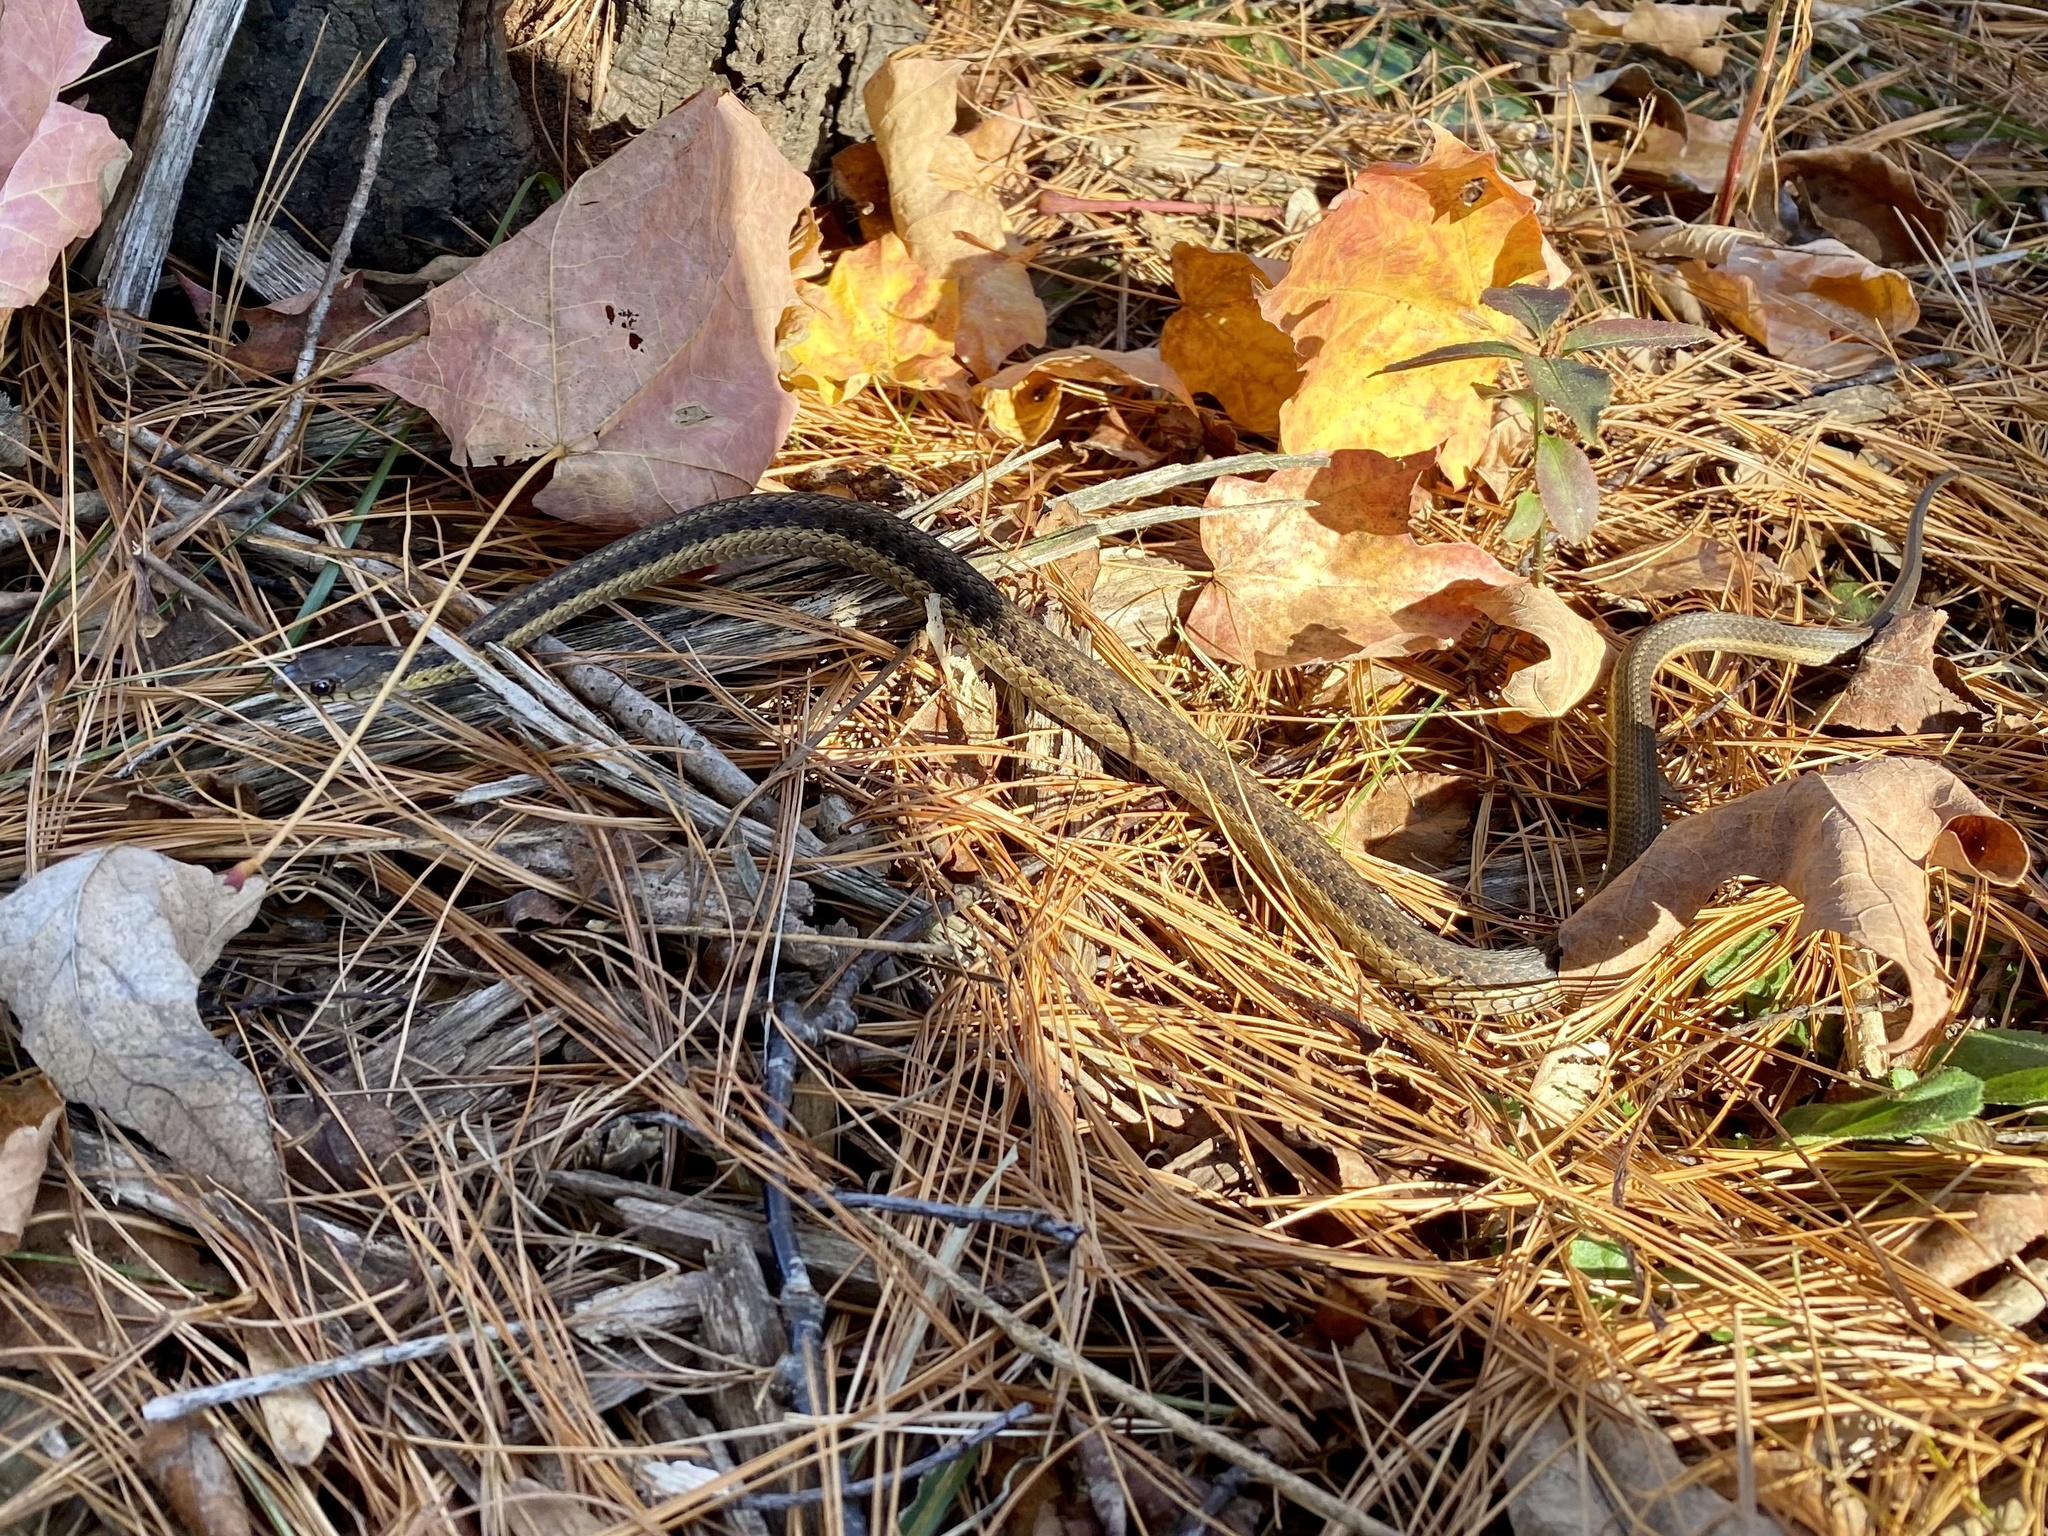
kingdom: Animalia
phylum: Chordata
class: Squamata
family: Colubridae
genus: Thamnophis
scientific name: Thamnophis sirtalis
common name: Common garter snake
